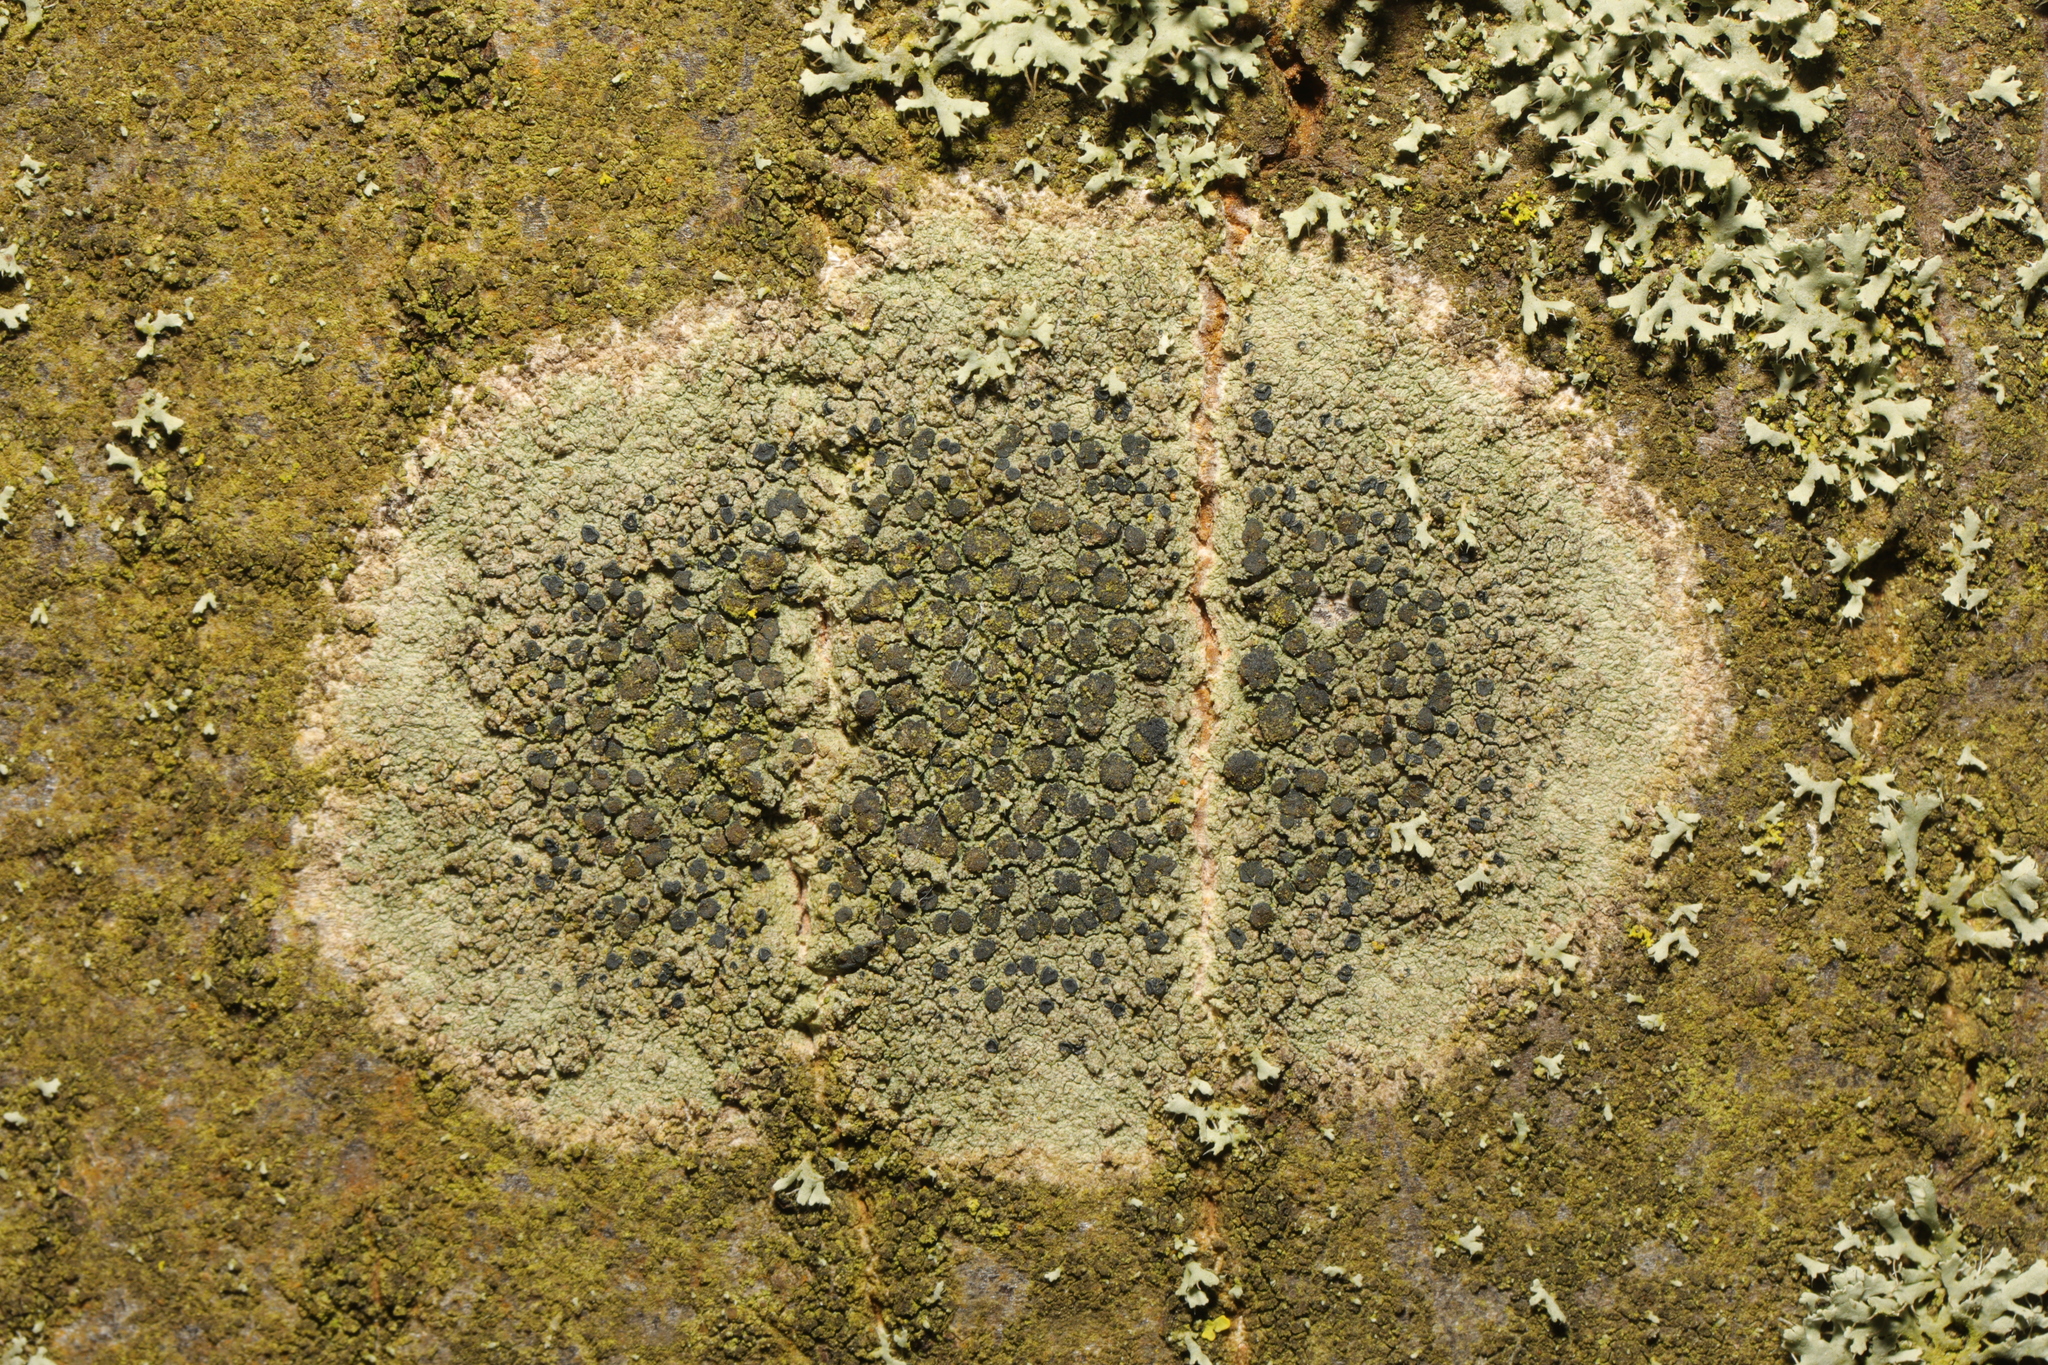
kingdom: Fungi
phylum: Ascomycota
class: Lecanoromycetes
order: Lecanorales
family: Lecanoraceae
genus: Lecidella
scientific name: Lecidella elaeochroma
